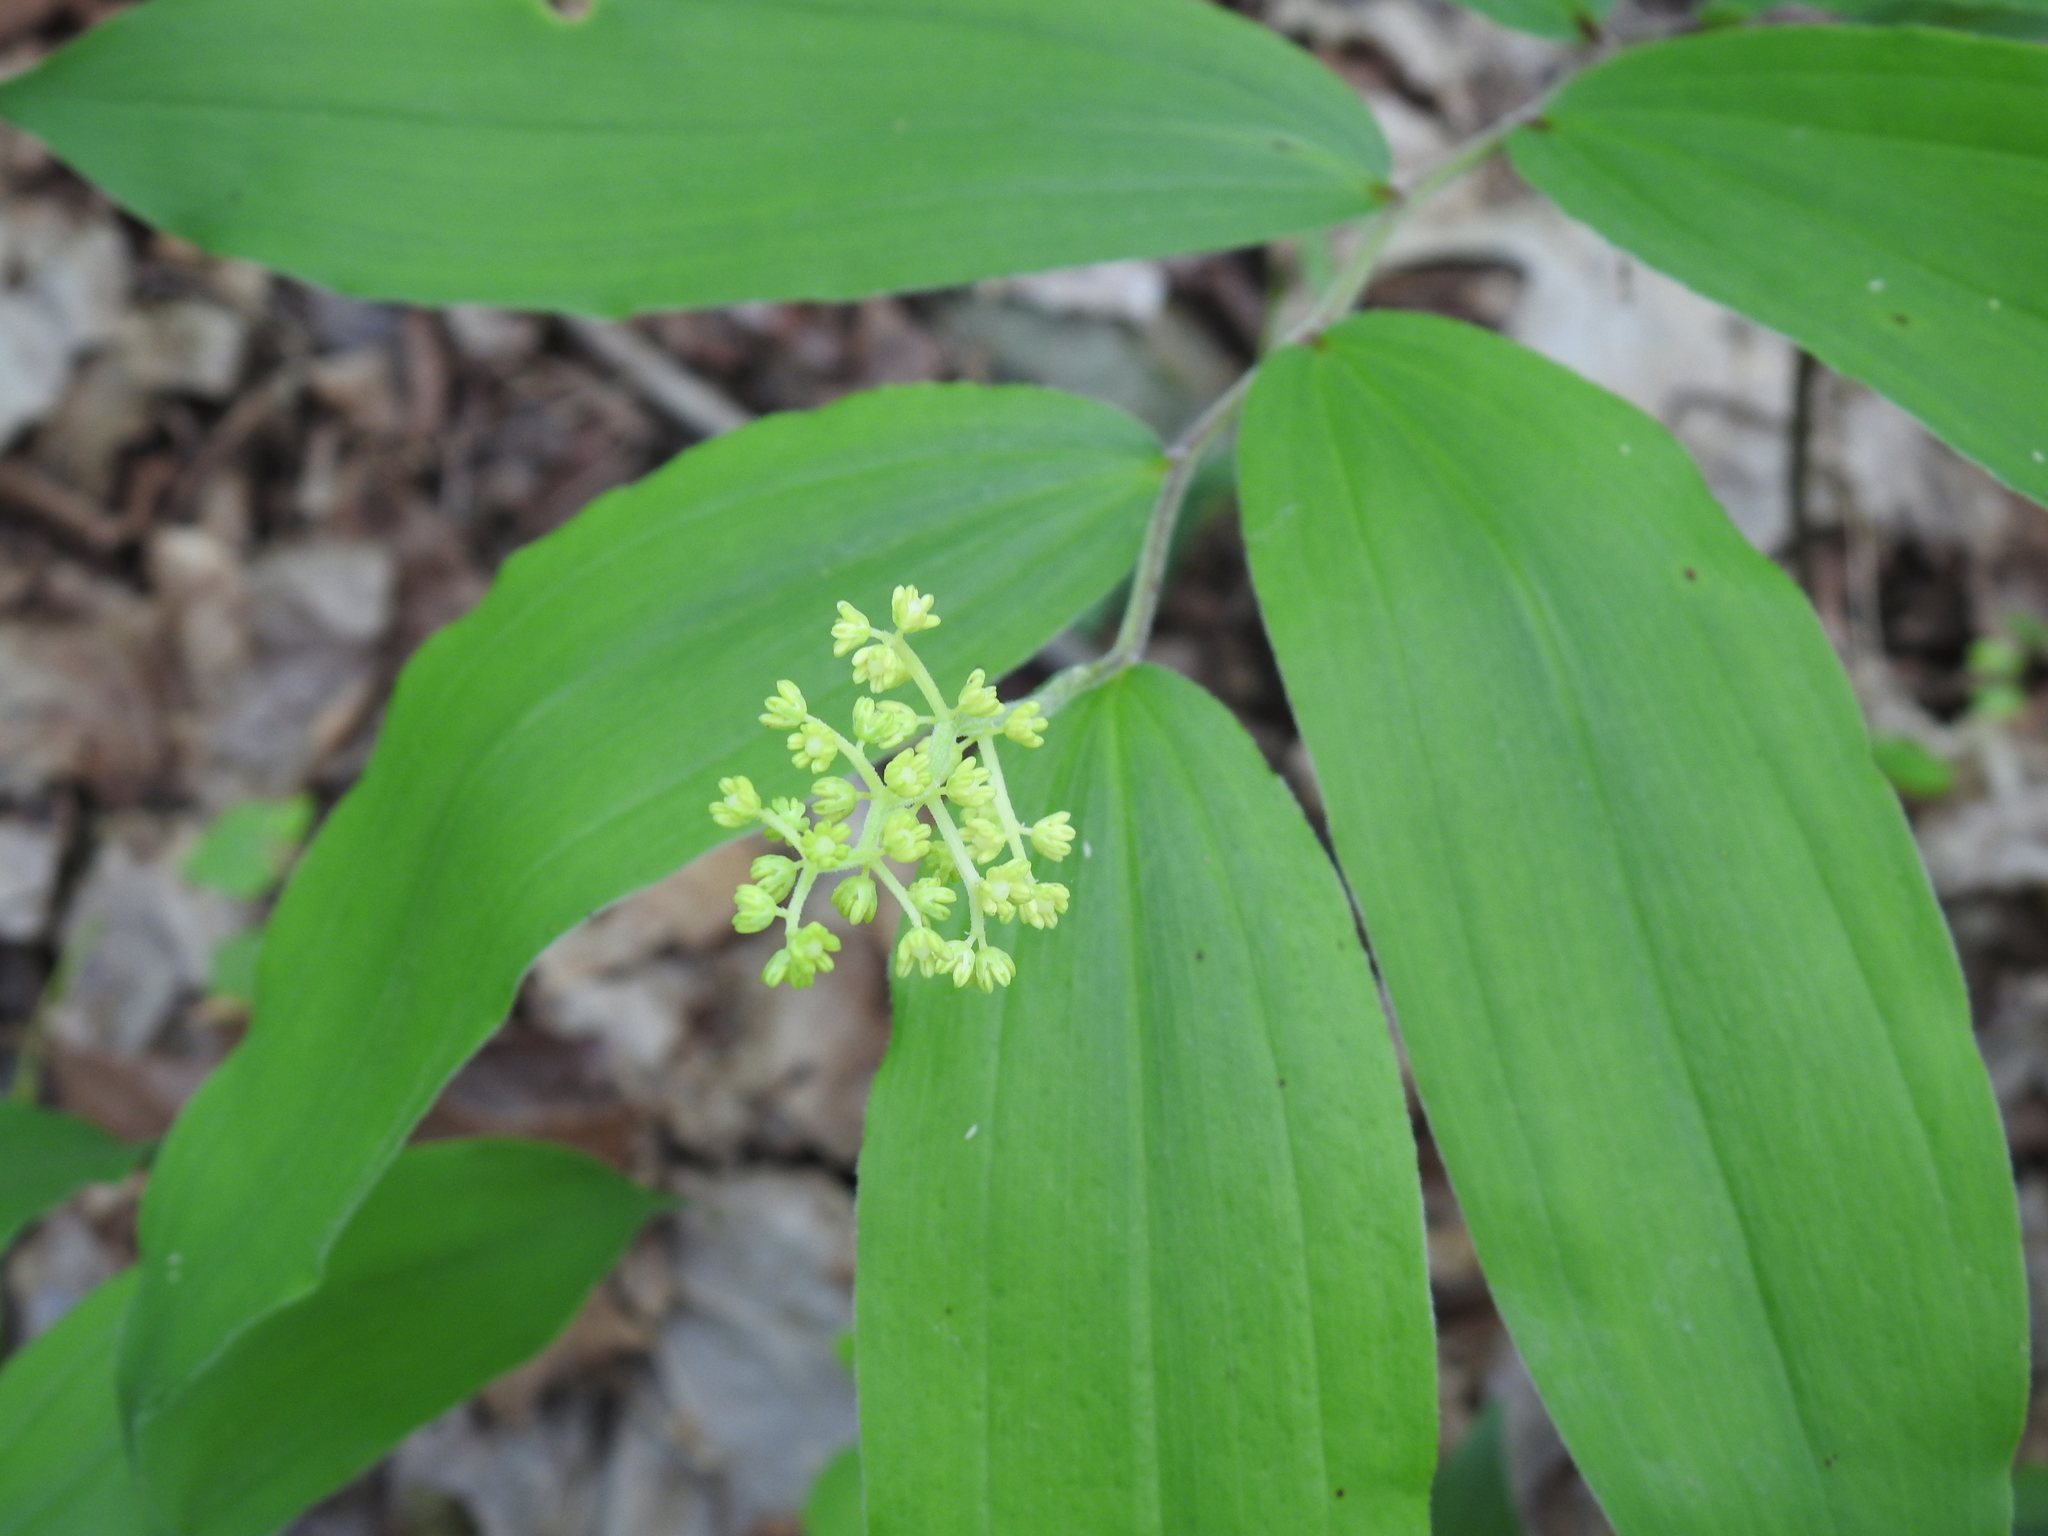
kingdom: Plantae
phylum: Tracheophyta
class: Liliopsida
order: Asparagales
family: Asparagaceae
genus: Maianthemum
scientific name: Maianthemum racemosum
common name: False spikenard
